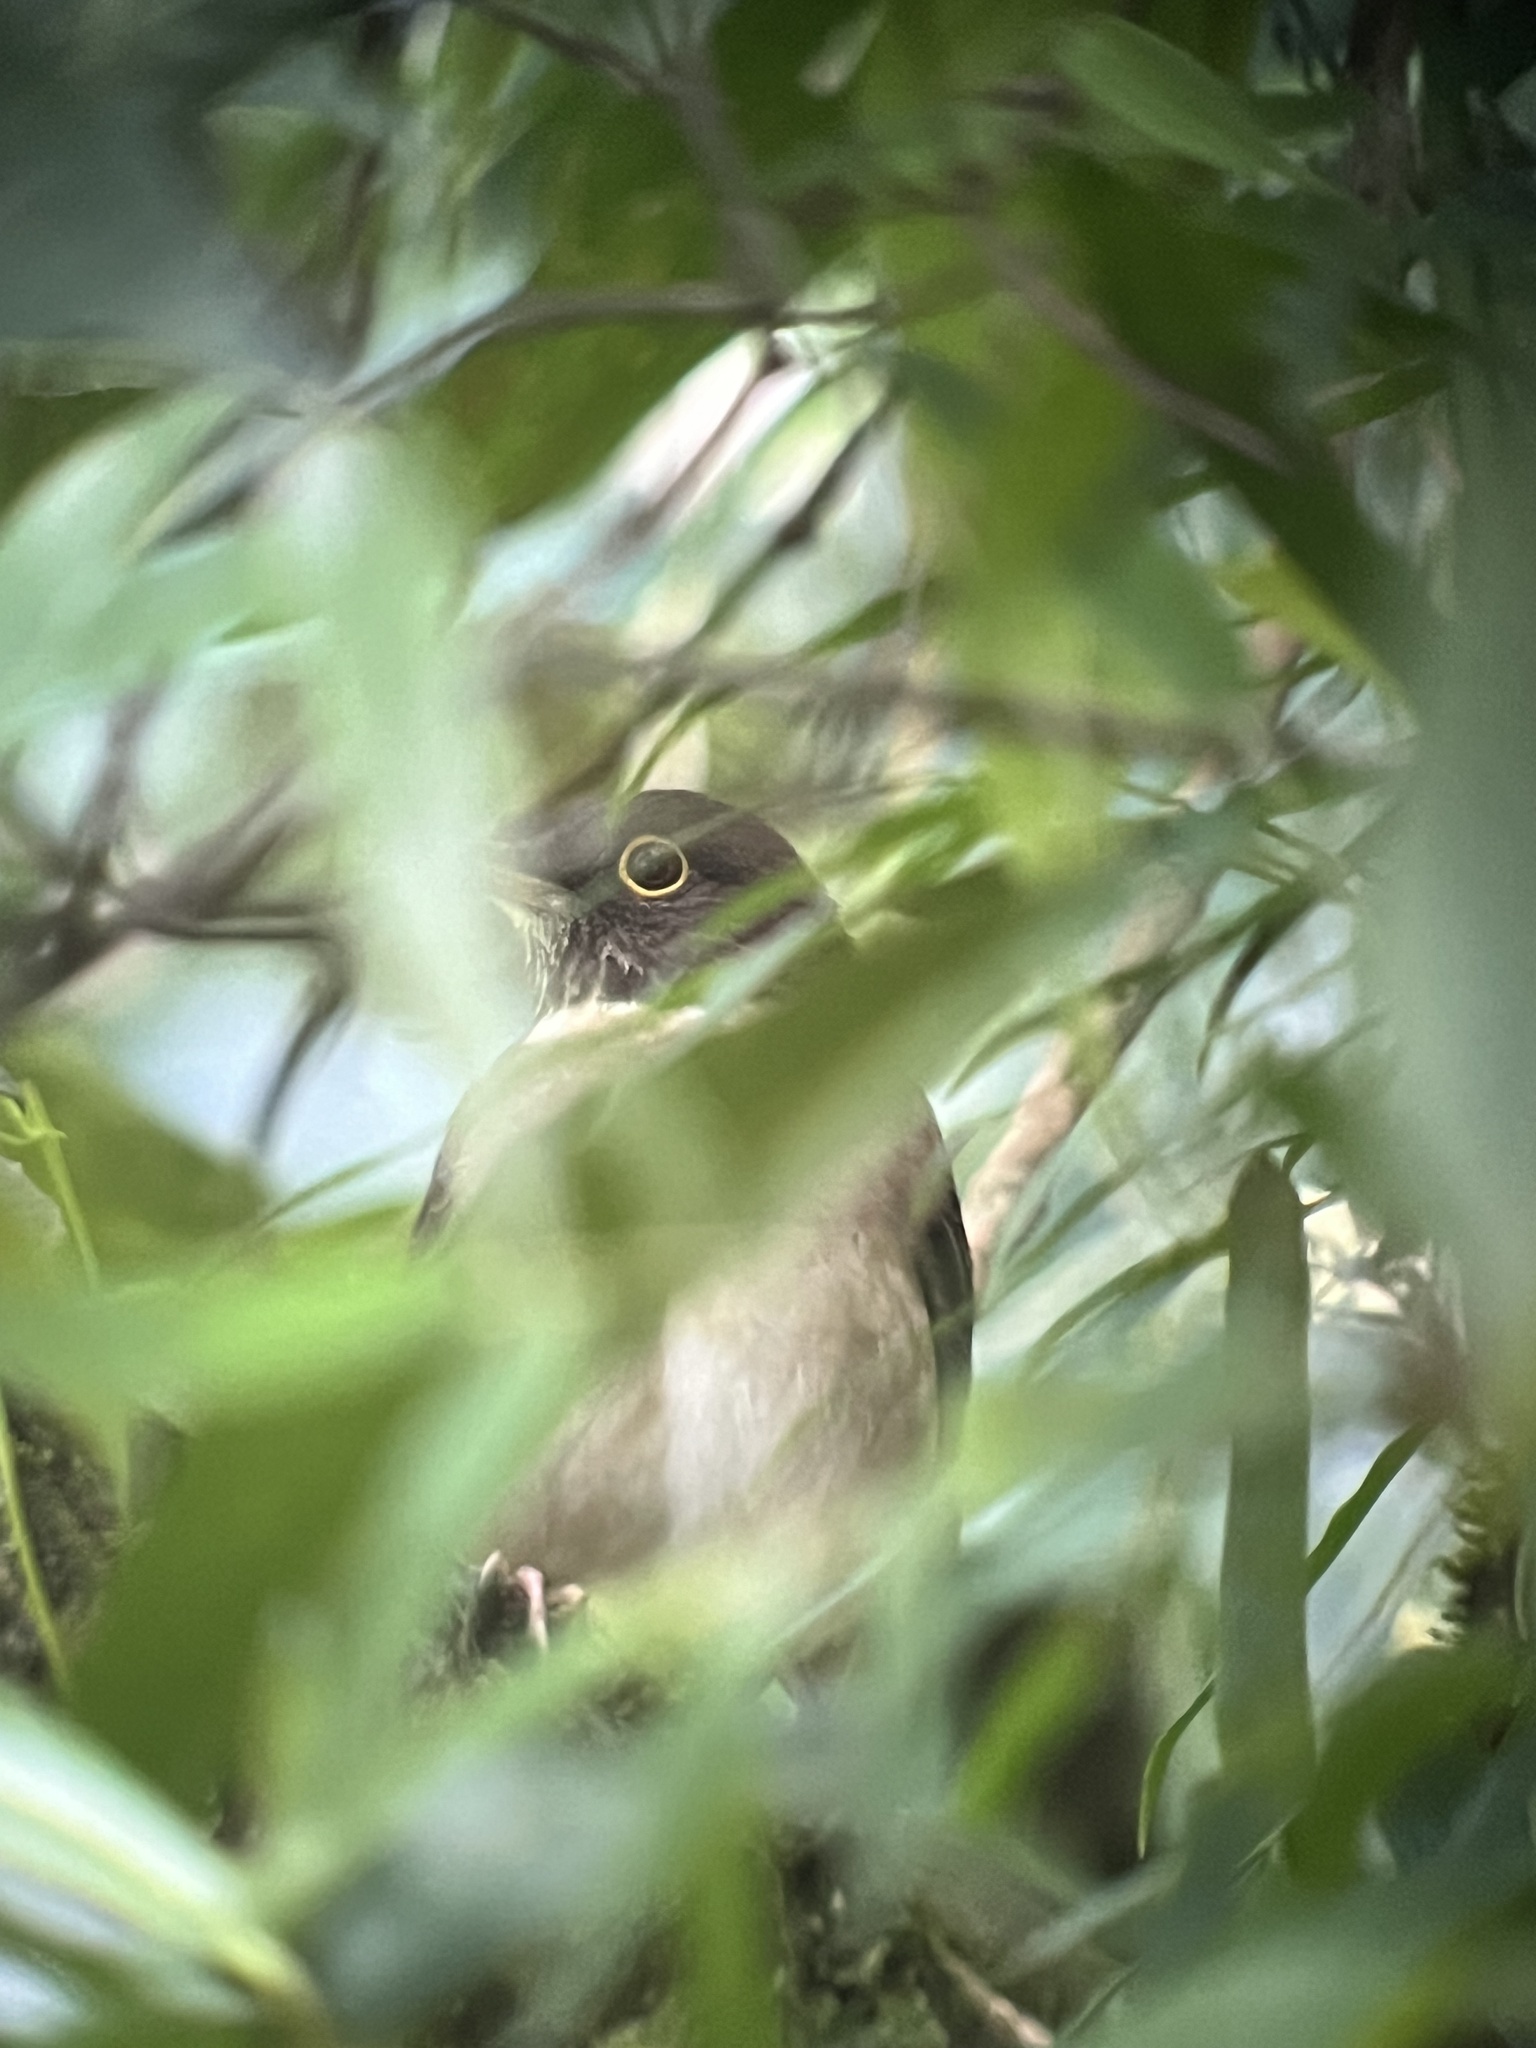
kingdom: Animalia
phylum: Chordata
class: Aves
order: Passeriformes
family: Turdidae
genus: Turdus
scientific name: Turdus assimilis
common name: White-throated thrush
